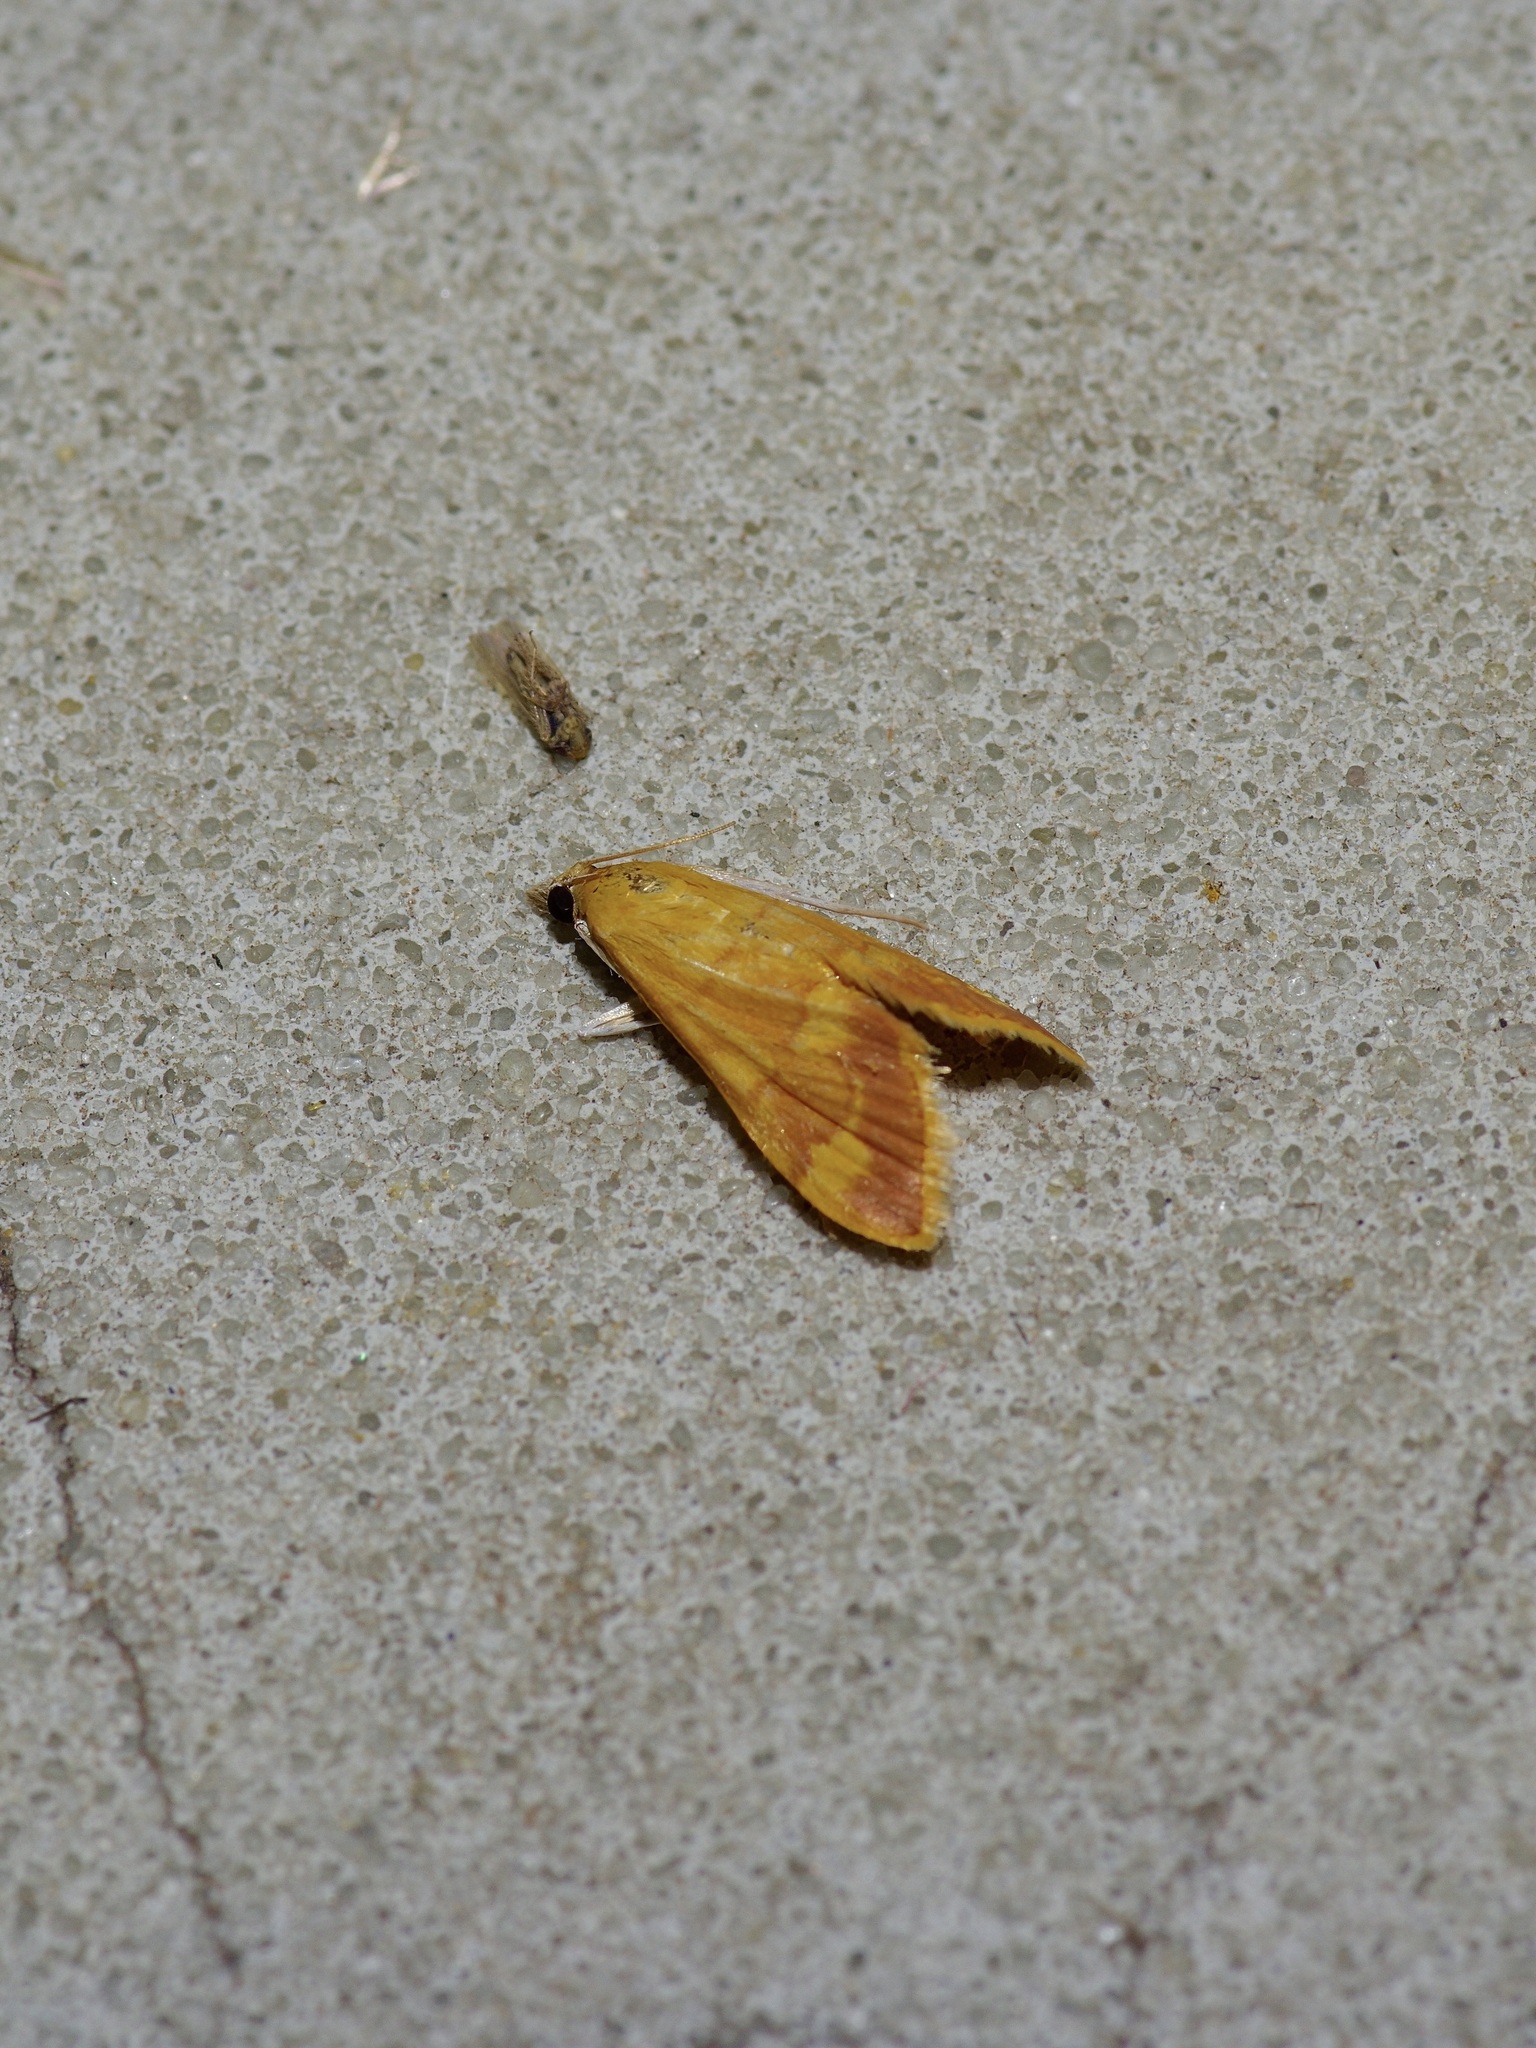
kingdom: Animalia
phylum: Arthropoda
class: Insecta
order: Lepidoptera
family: Crambidae
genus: Pyrausta
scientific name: Pyrausta pseudonythesalis
